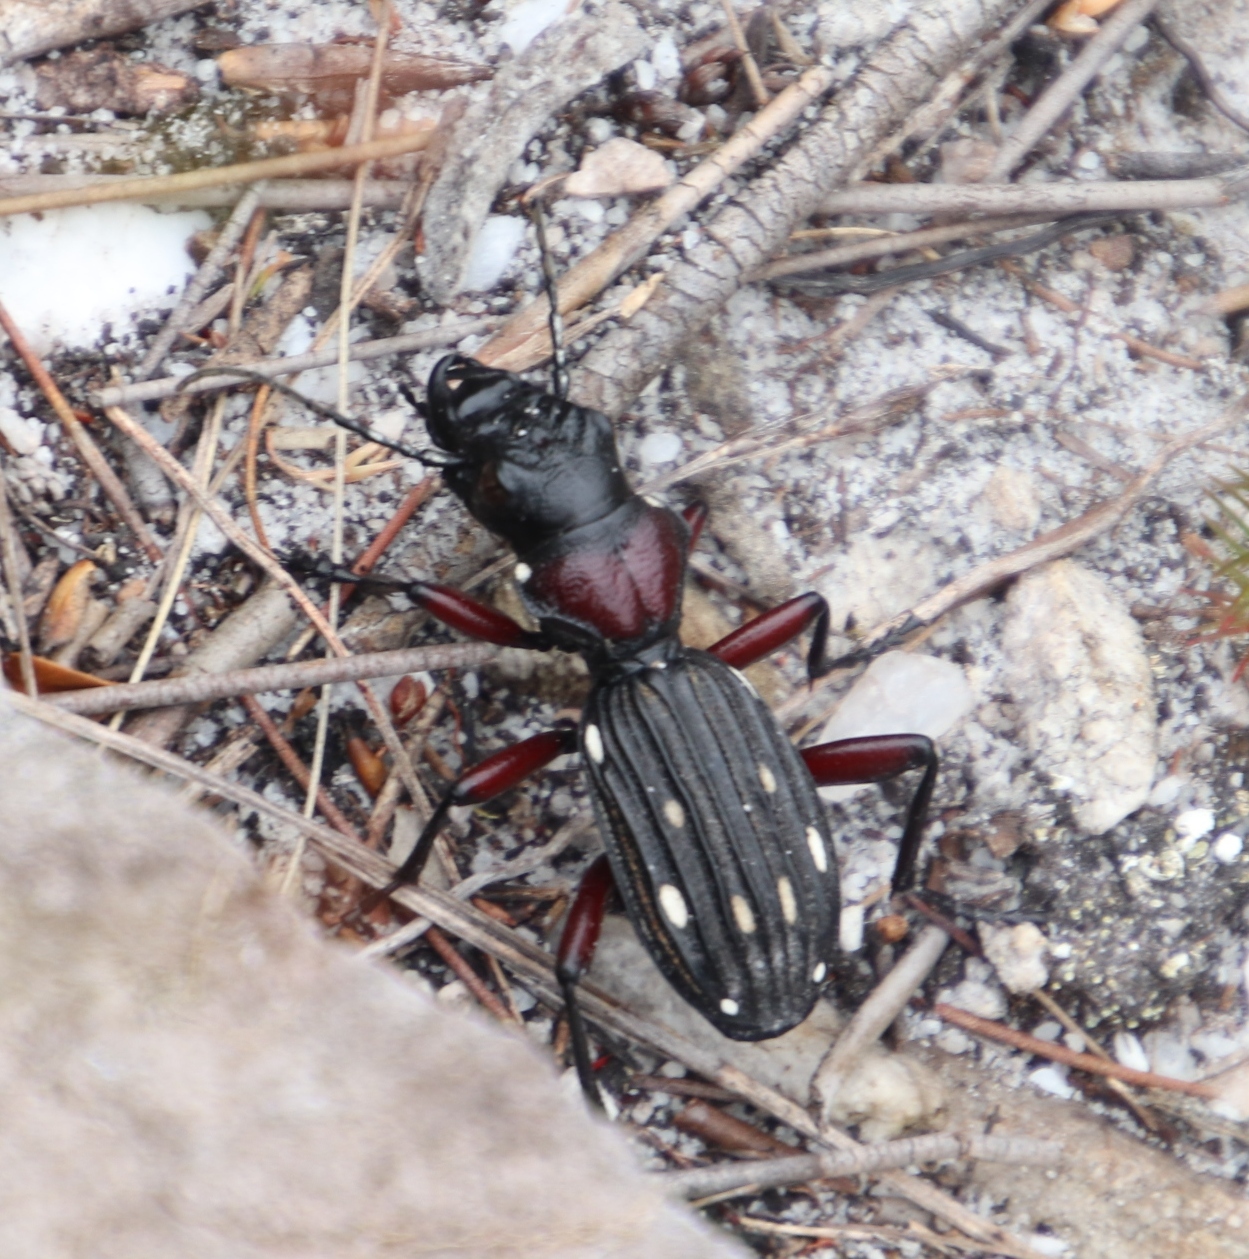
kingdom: Animalia
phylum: Arthropoda
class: Insecta
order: Coleoptera
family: Carabidae
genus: Anthia
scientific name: Anthia decemguttata
